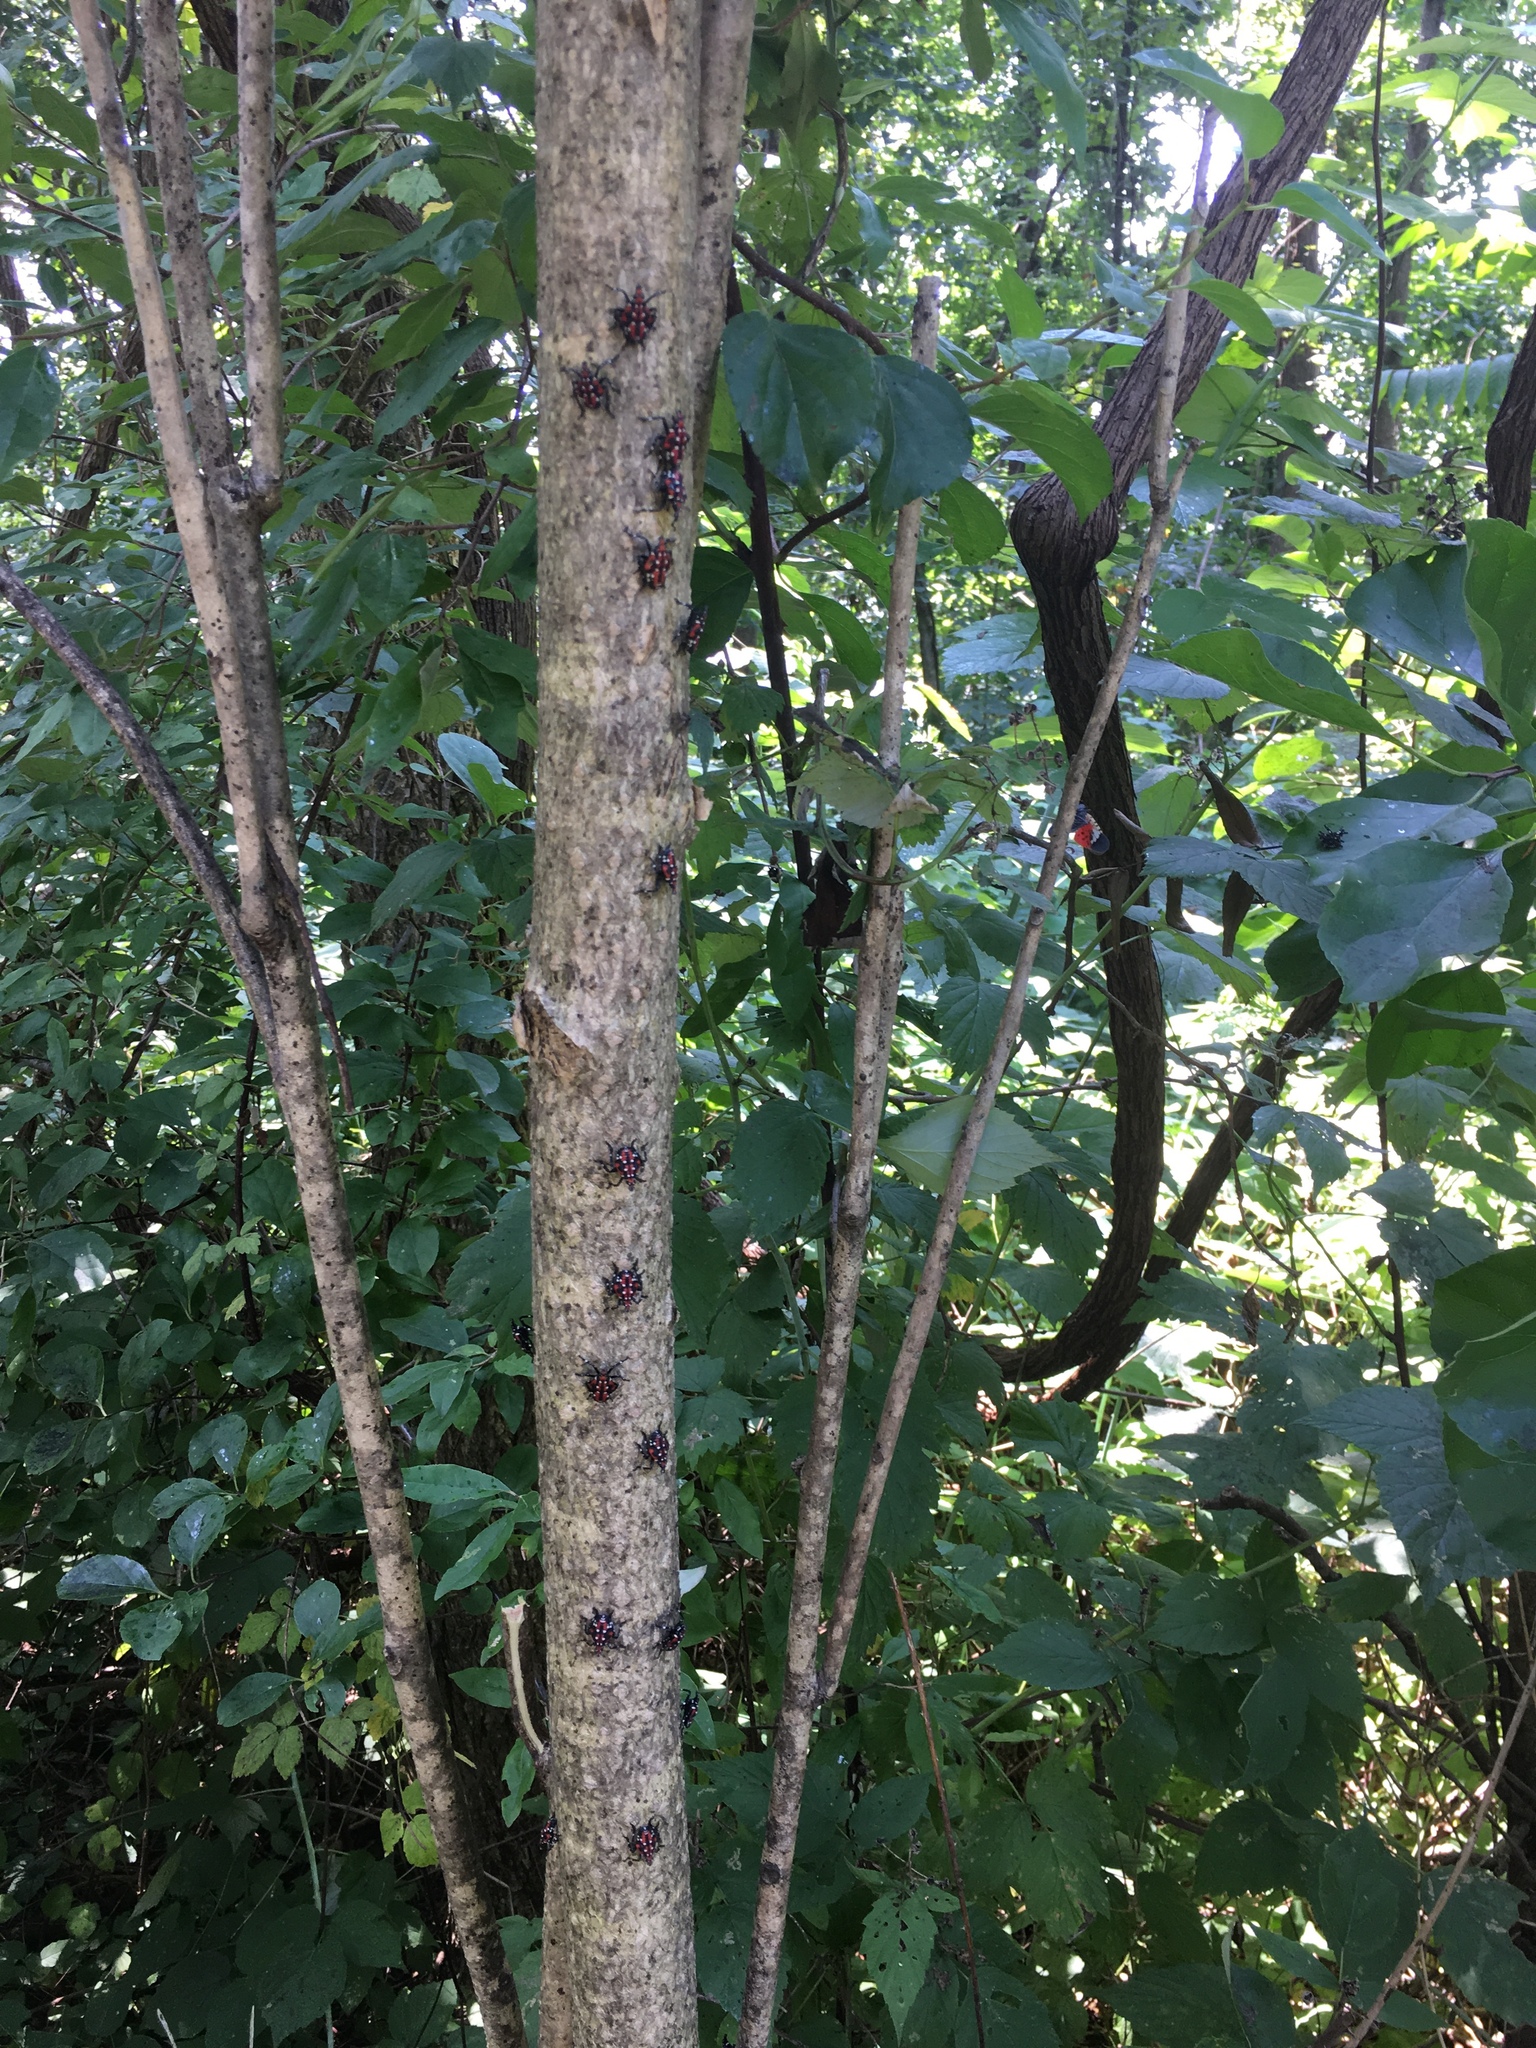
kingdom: Animalia
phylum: Arthropoda
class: Insecta
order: Hemiptera
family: Fulgoridae
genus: Lycorma
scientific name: Lycorma delicatula
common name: Spotted lanternfly
